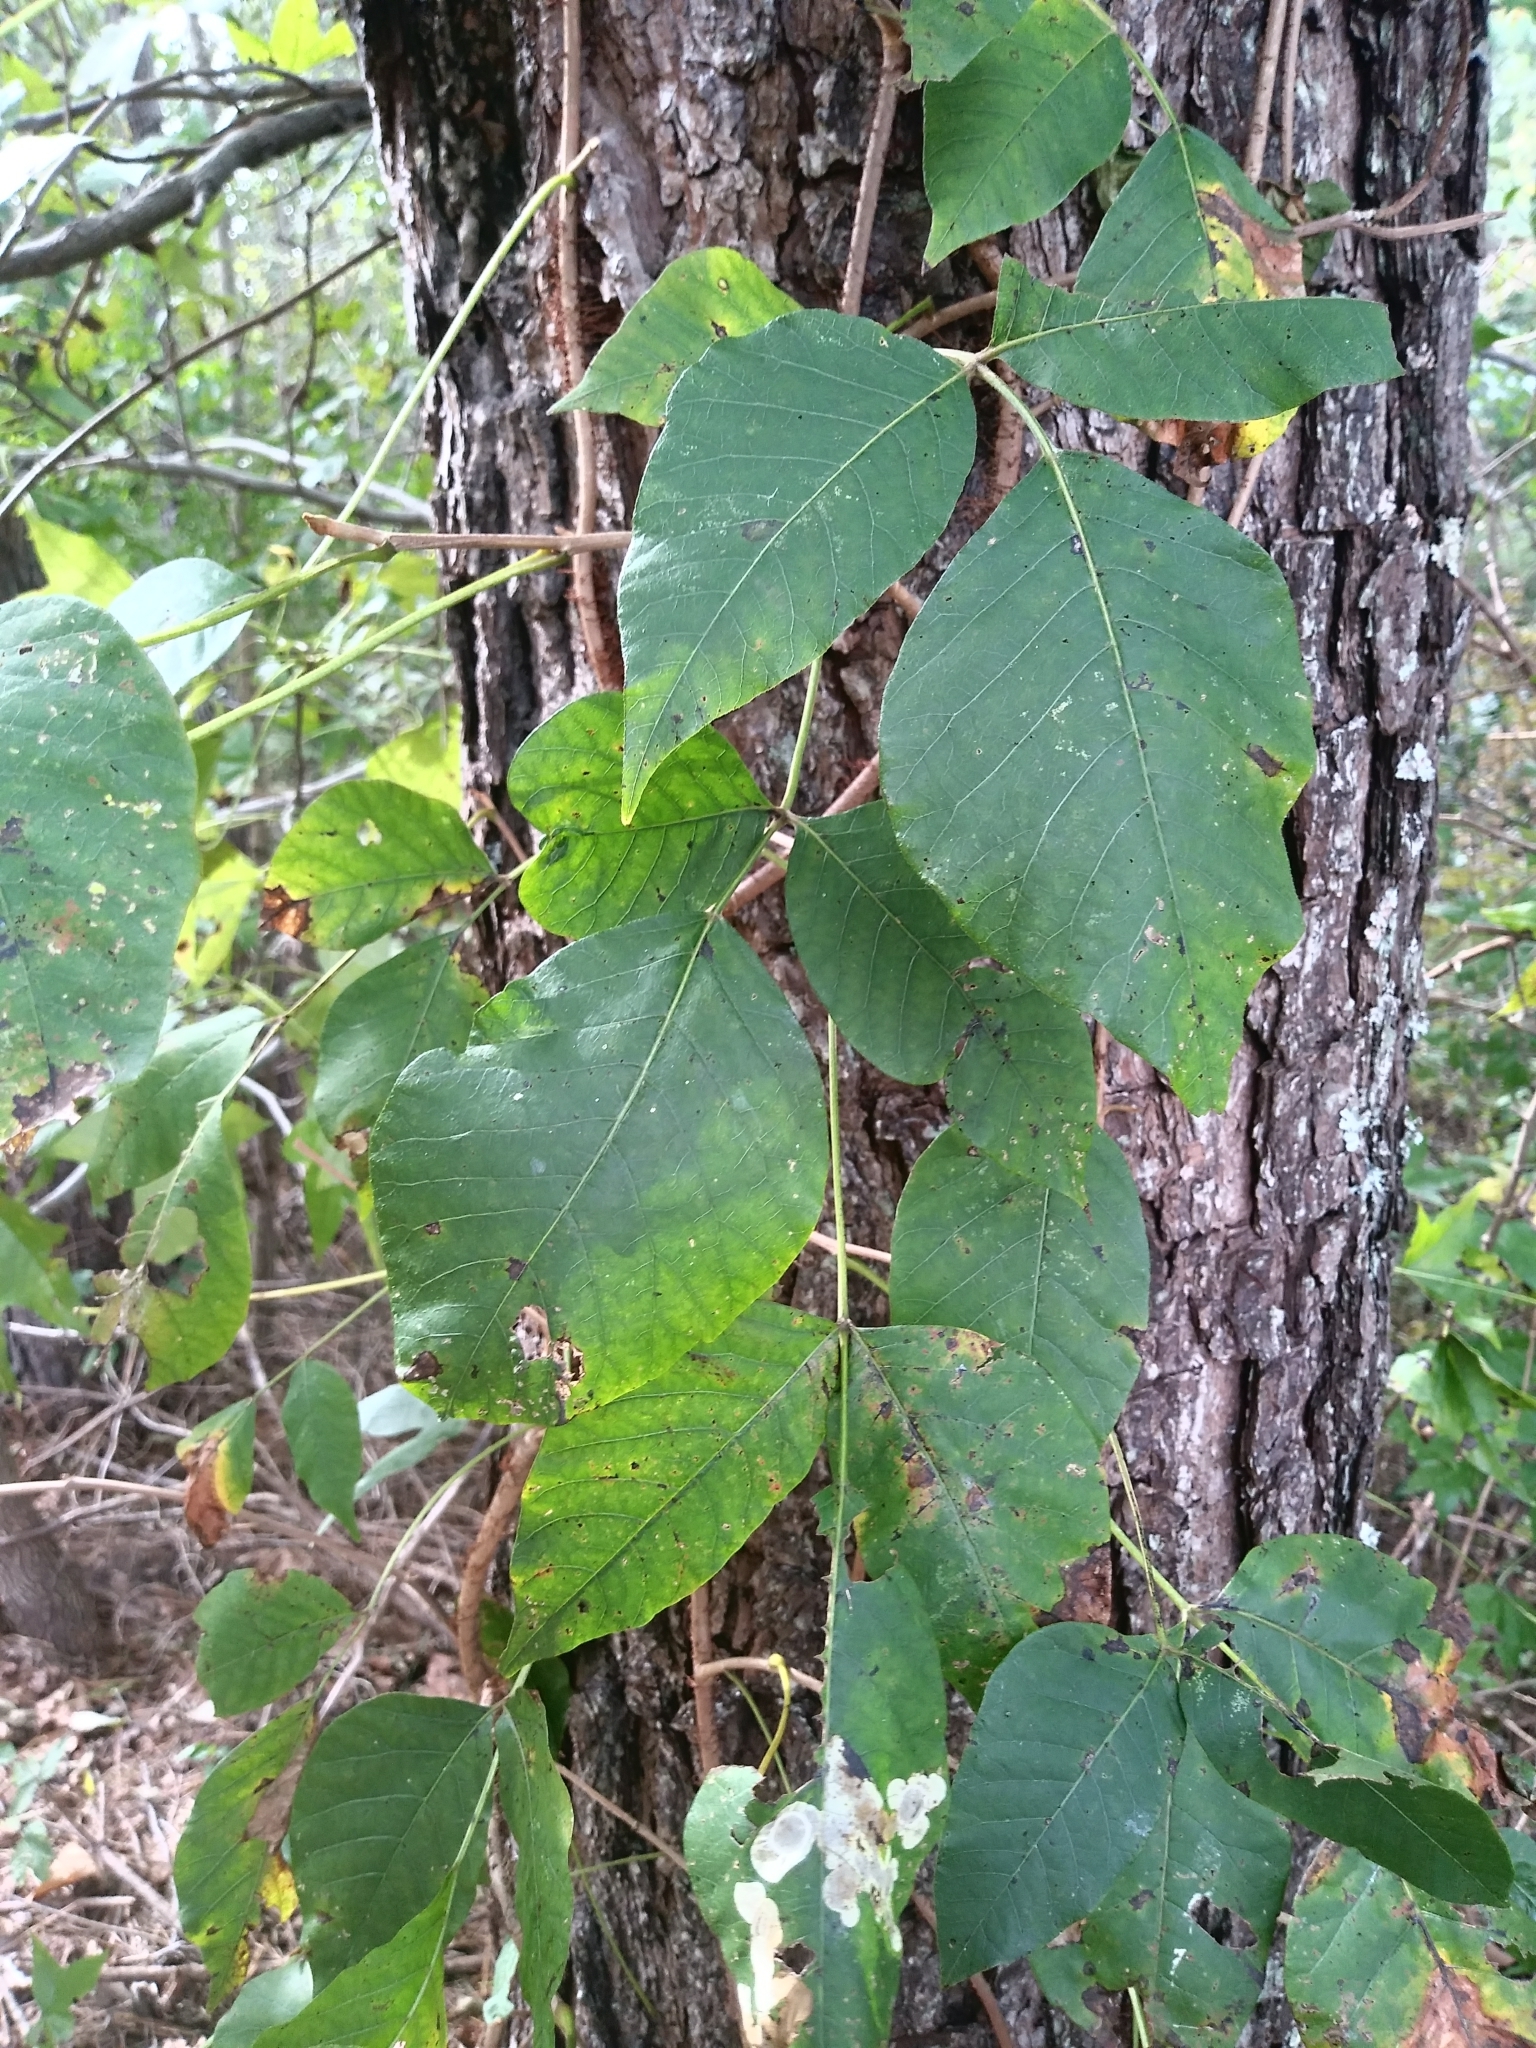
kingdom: Plantae
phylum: Tracheophyta
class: Magnoliopsida
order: Sapindales
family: Anacardiaceae
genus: Toxicodendron
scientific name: Toxicodendron radicans
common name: Poison ivy
